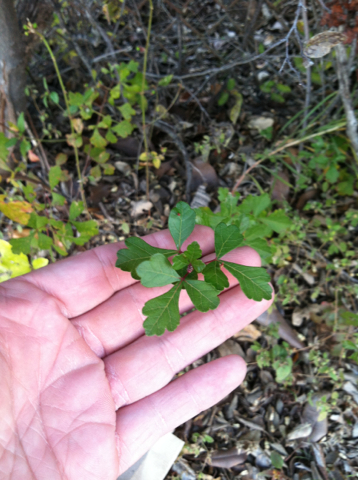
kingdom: Plantae
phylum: Tracheophyta
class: Magnoliopsida
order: Sapindales
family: Anacardiaceae
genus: Rhus
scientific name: Rhus aromatica
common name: Aromatic sumac
